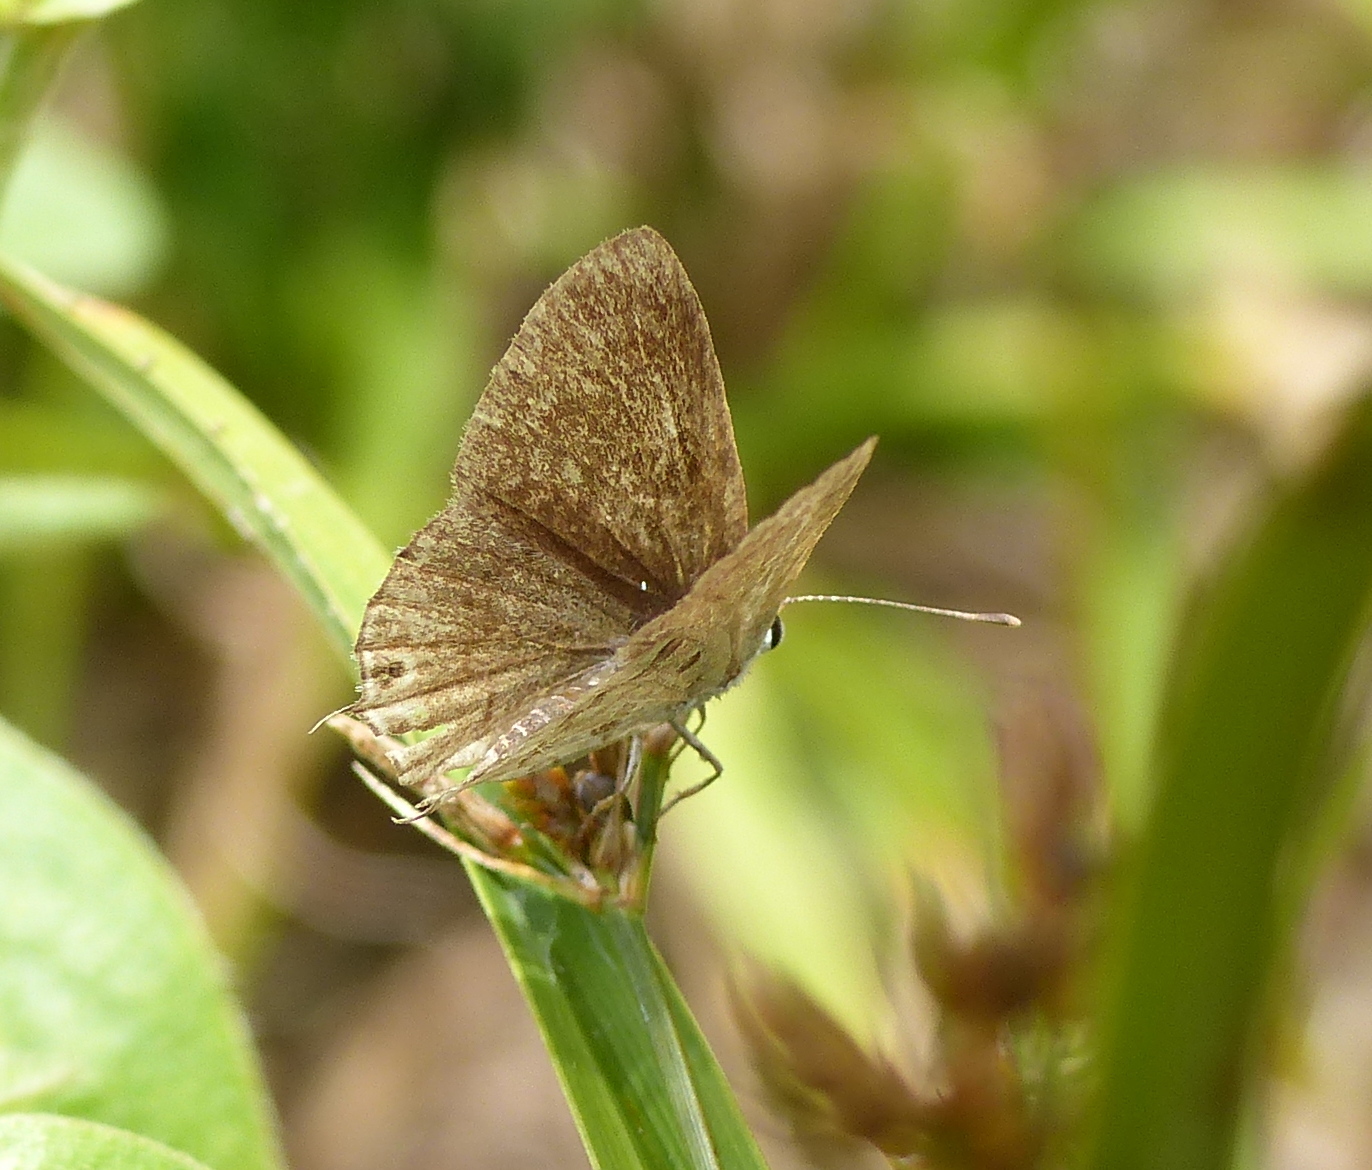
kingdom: Animalia
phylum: Arthropoda
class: Insecta
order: Lepidoptera
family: Lycaenidae
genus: Strymon
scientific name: Strymon astiocha
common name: Gray-spotted scrub-hairstreak
